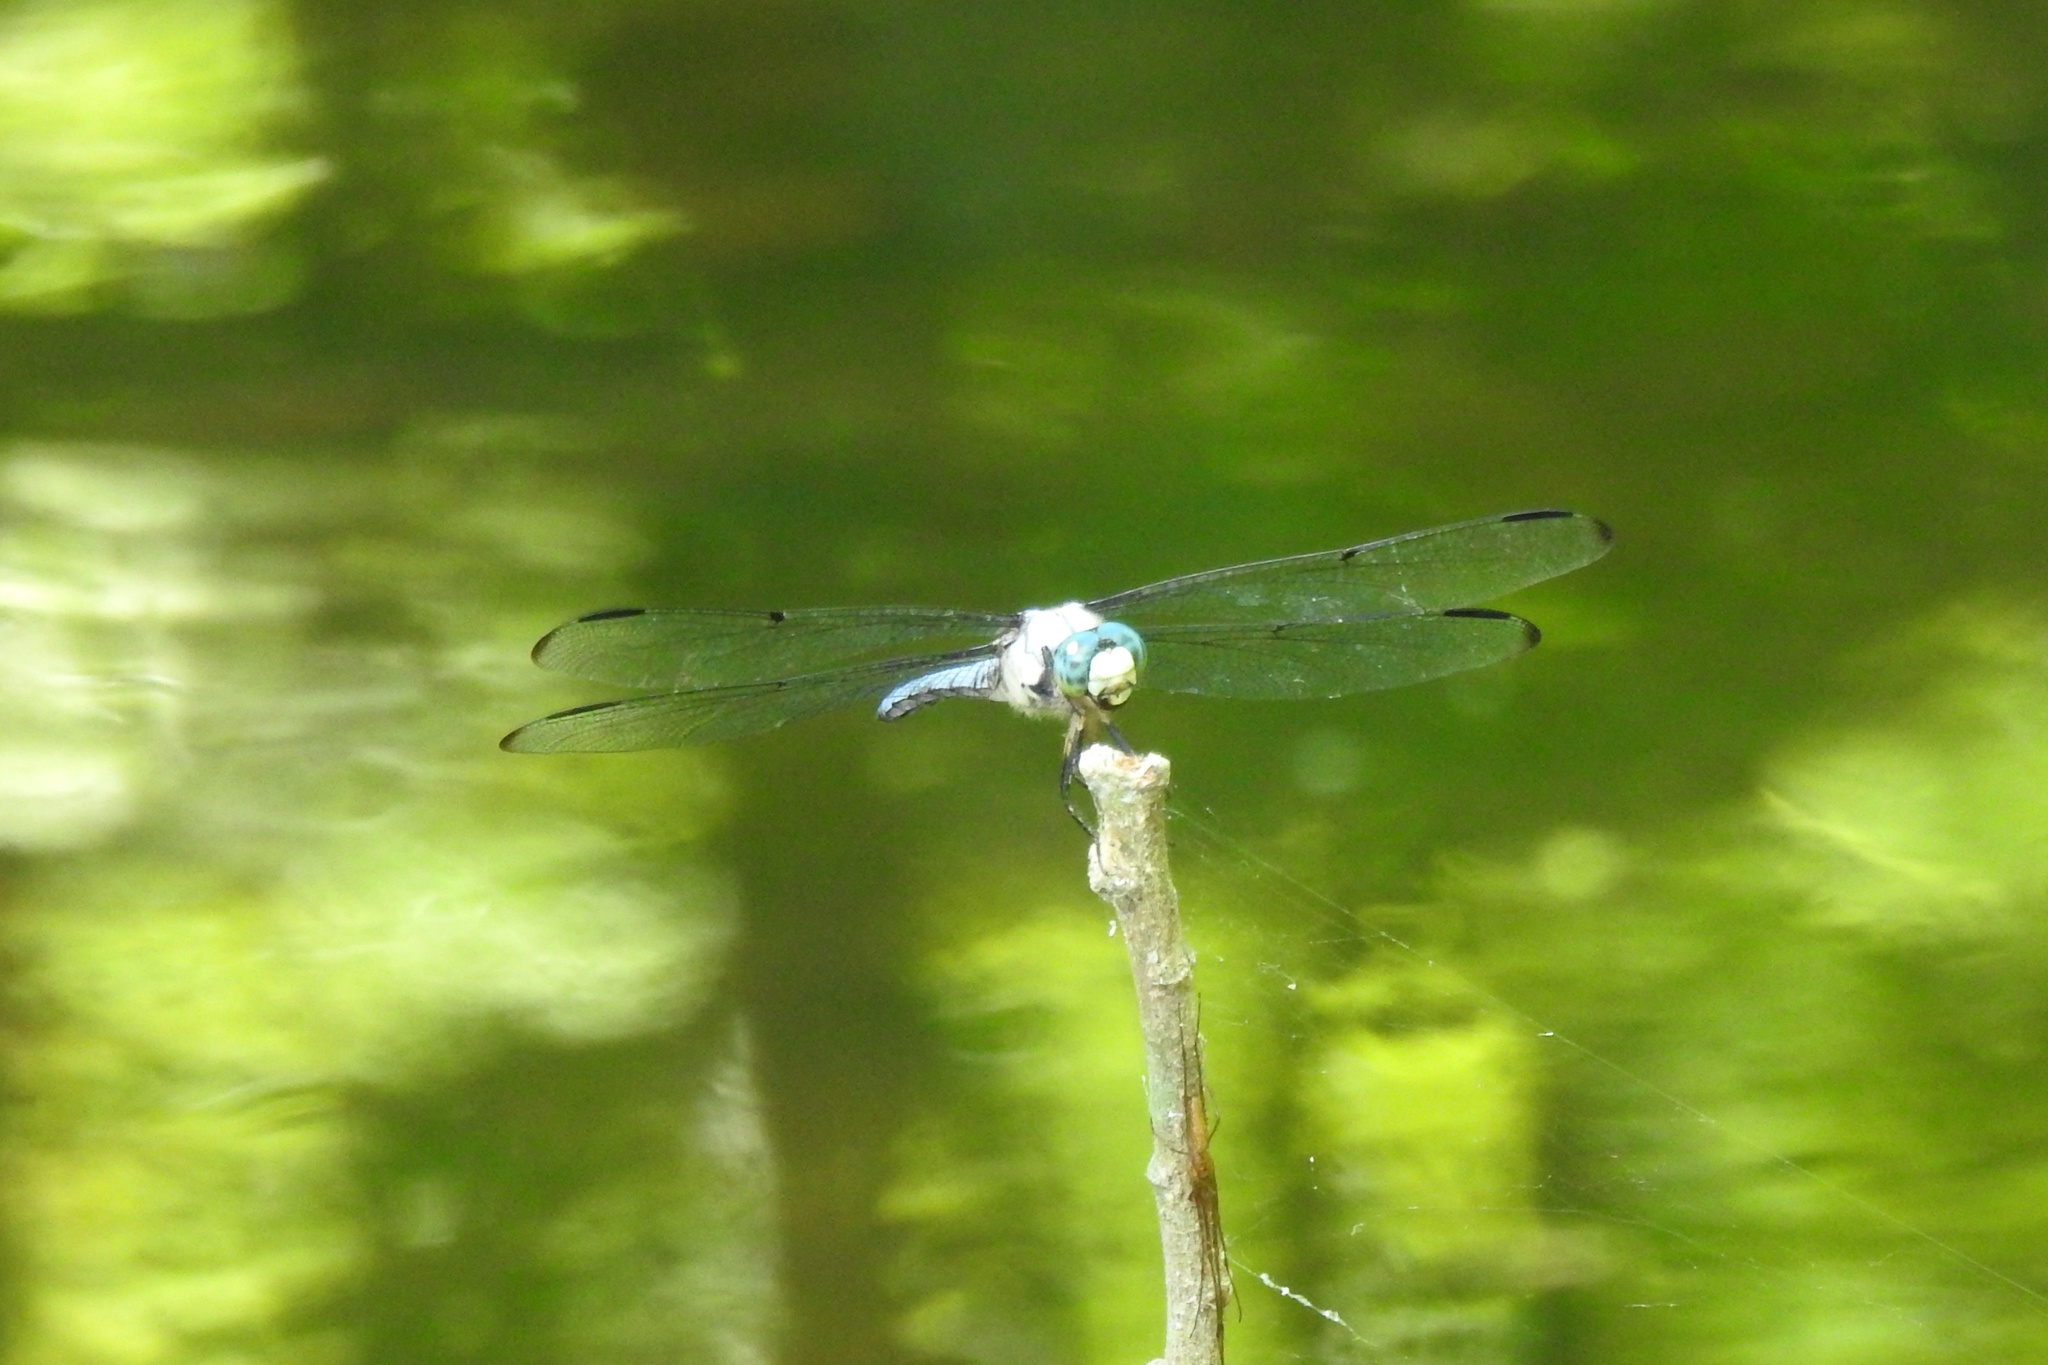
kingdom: Animalia
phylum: Arthropoda
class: Insecta
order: Odonata
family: Libellulidae
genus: Libellula
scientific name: Libellula vibrans
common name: Great blue skimmer
